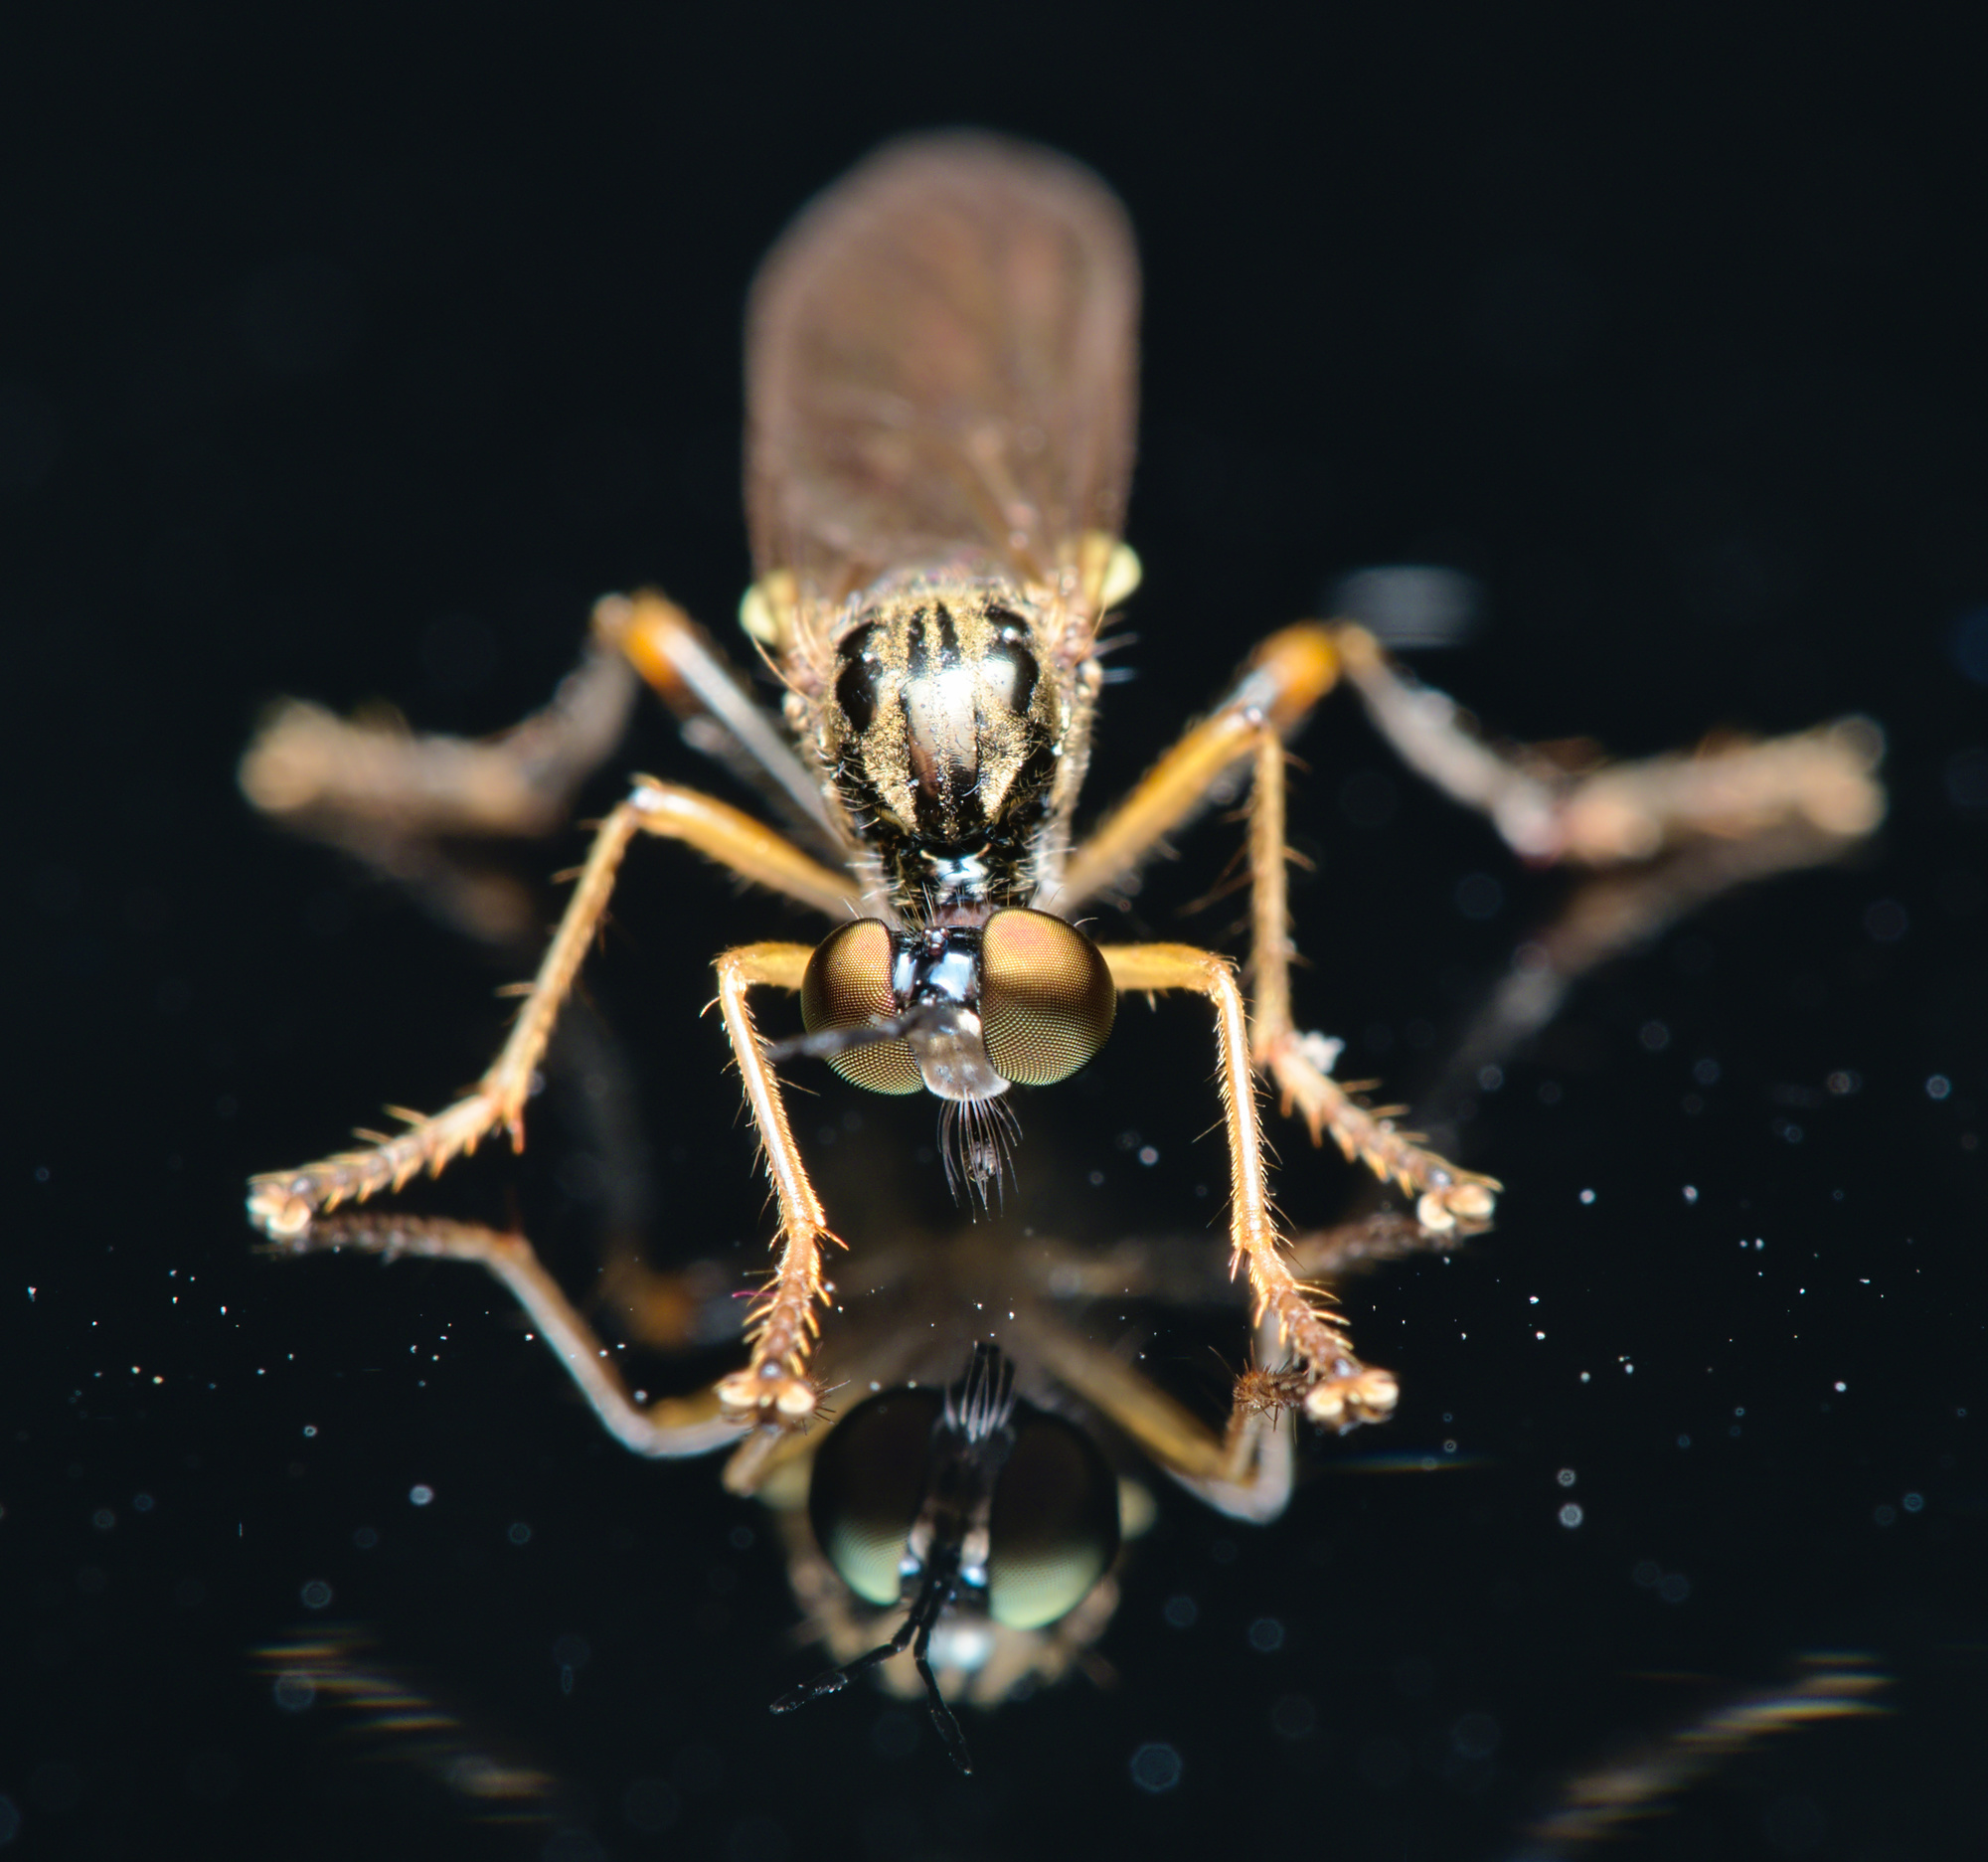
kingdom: Animalia
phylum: Arthropoda
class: Insecta
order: Diptera
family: Asilidae
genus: Dioctria
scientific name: Dioctria linearis
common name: Small yellow-legged robberfly
